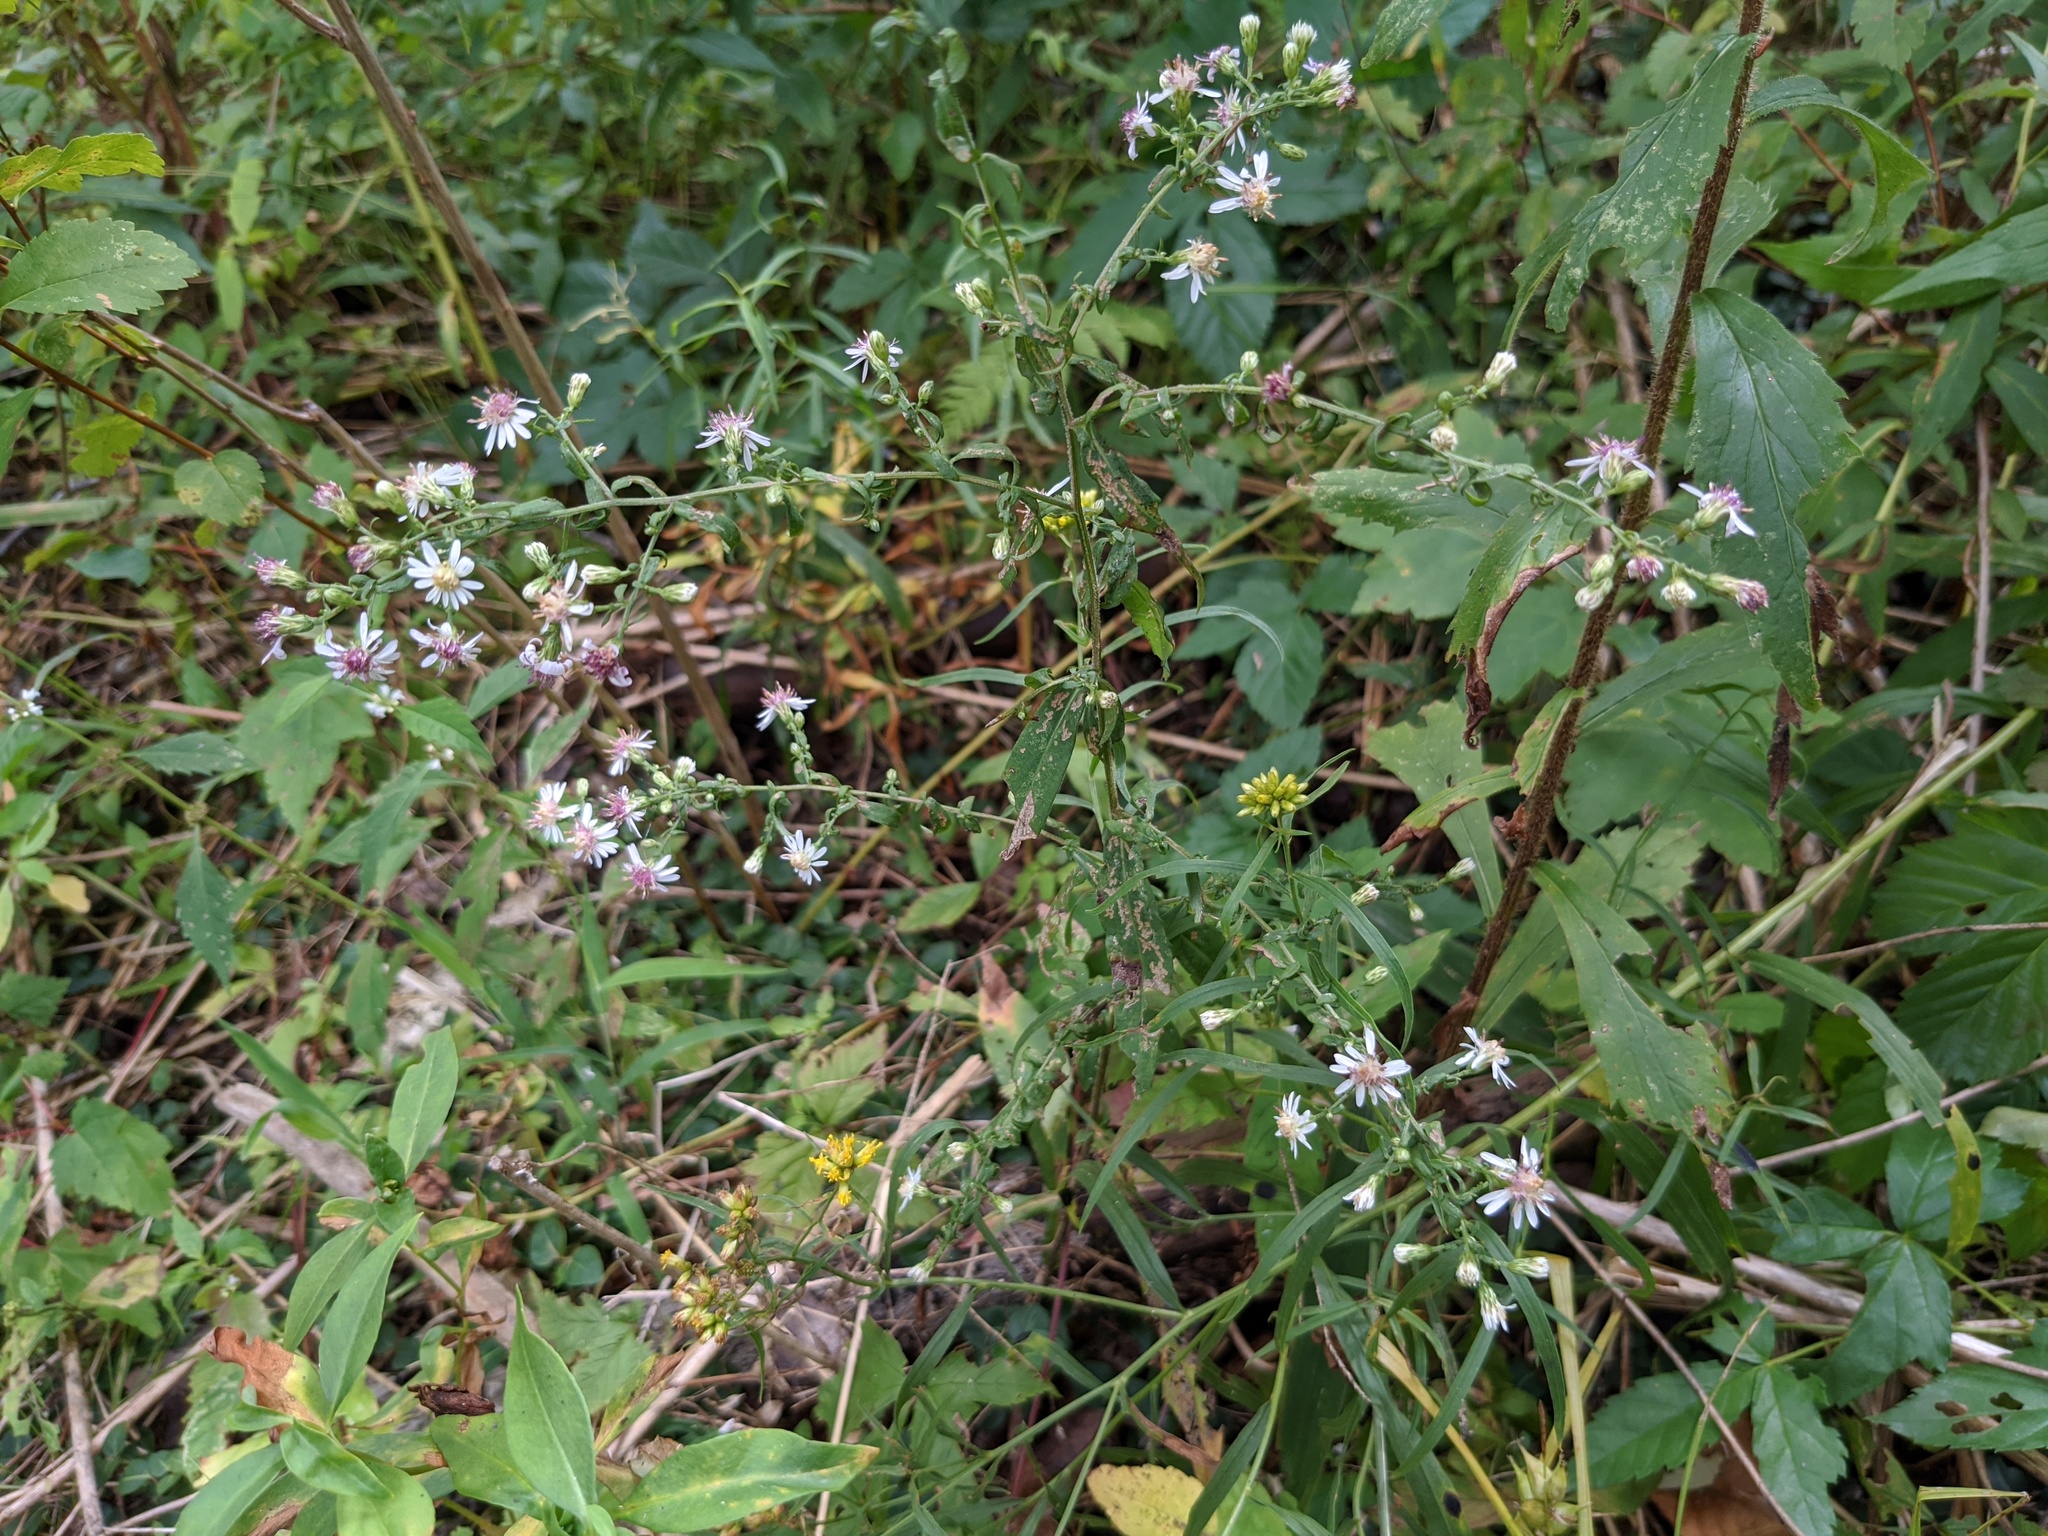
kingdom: Plantae
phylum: Tracheophyta
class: Magnoliopsida
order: Asterales
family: Asteraceae
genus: Symphyotrichum
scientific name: Symphyotrichum lateriflorum
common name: Calico aster
